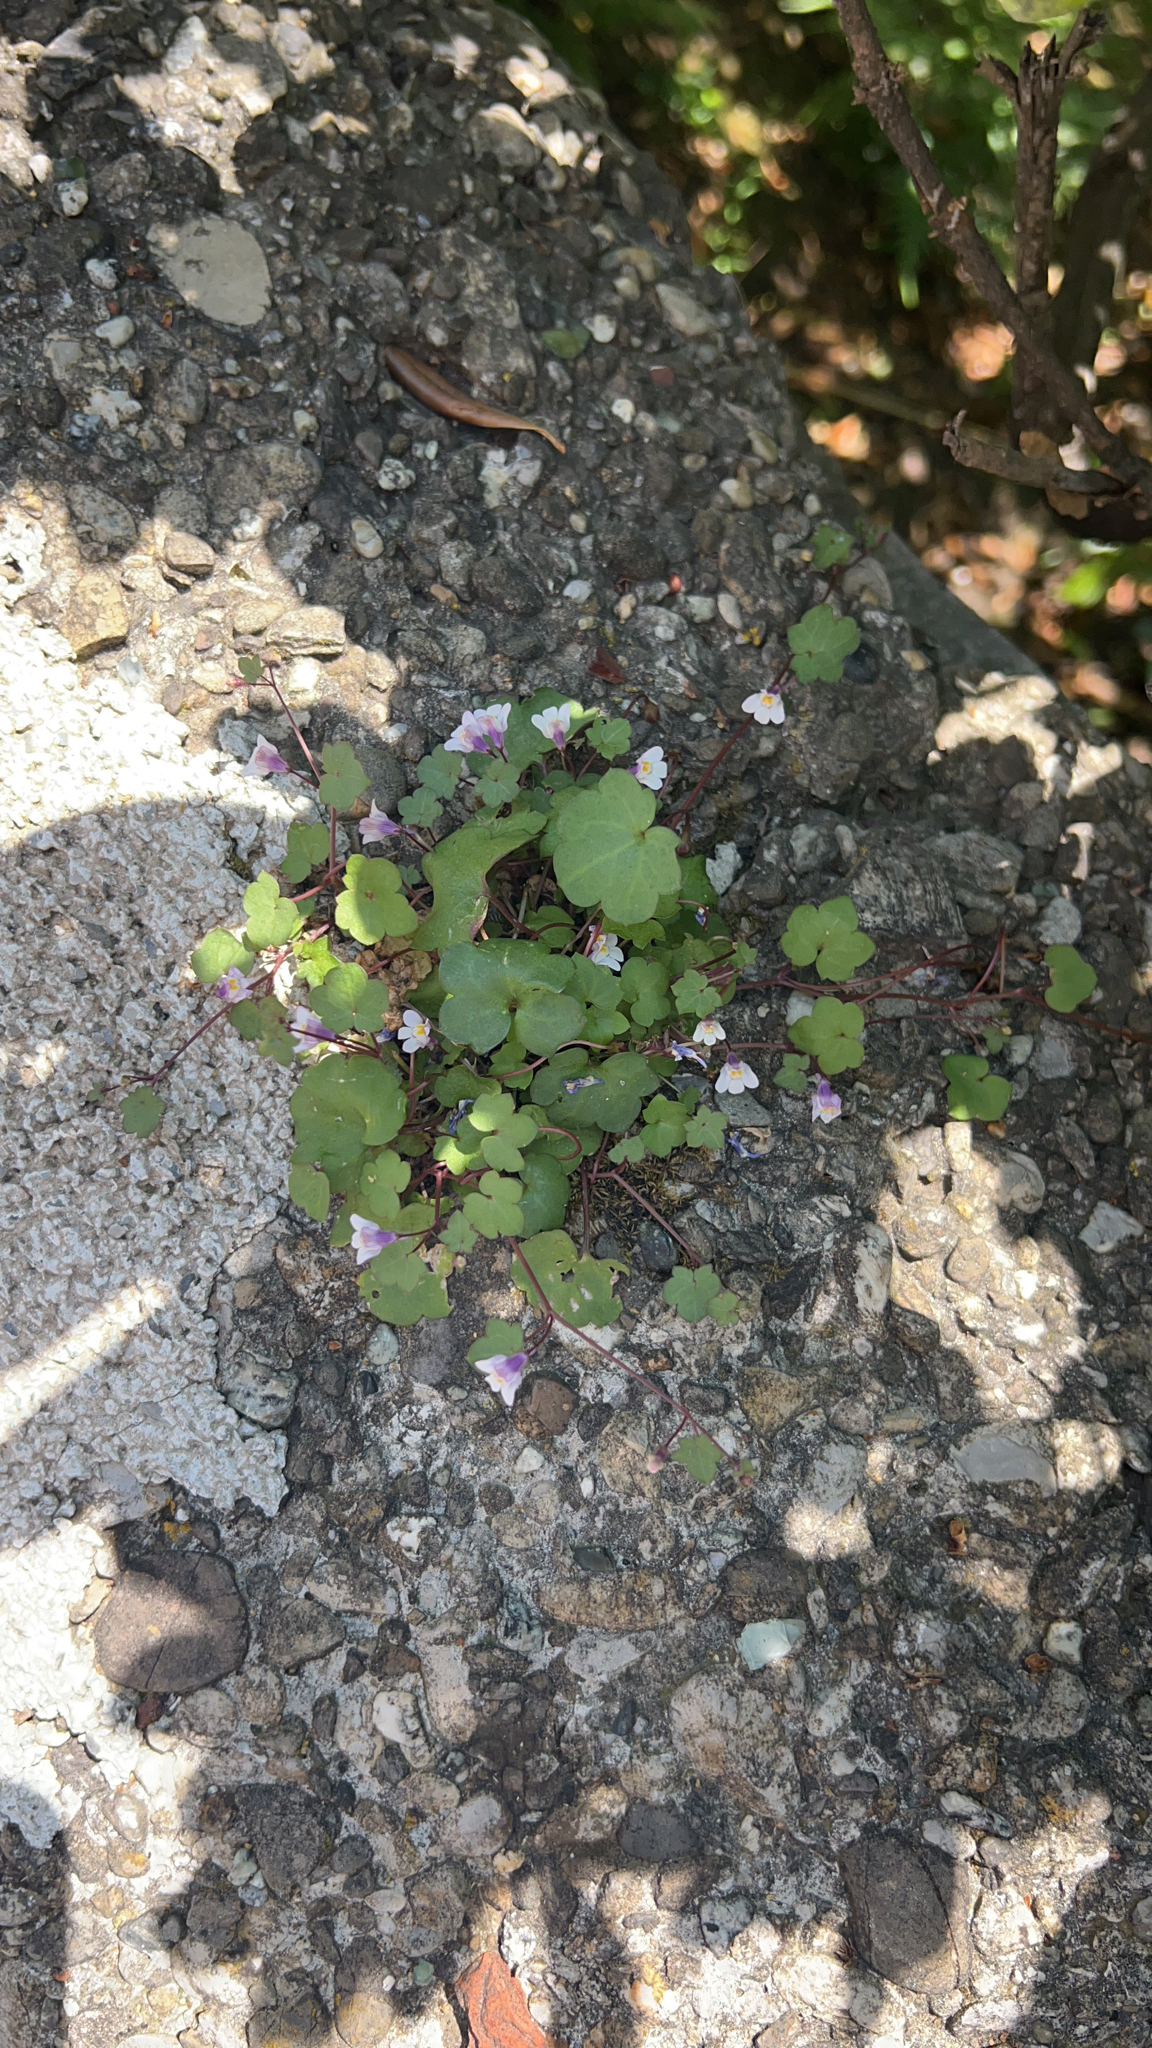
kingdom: Plantae
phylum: Tracheophyta
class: Magnoliopsida
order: Lamiales
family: Plantaginaceae
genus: Cymbalaria
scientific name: Cymbalaria muralis
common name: Ivy-leaved toadflax
